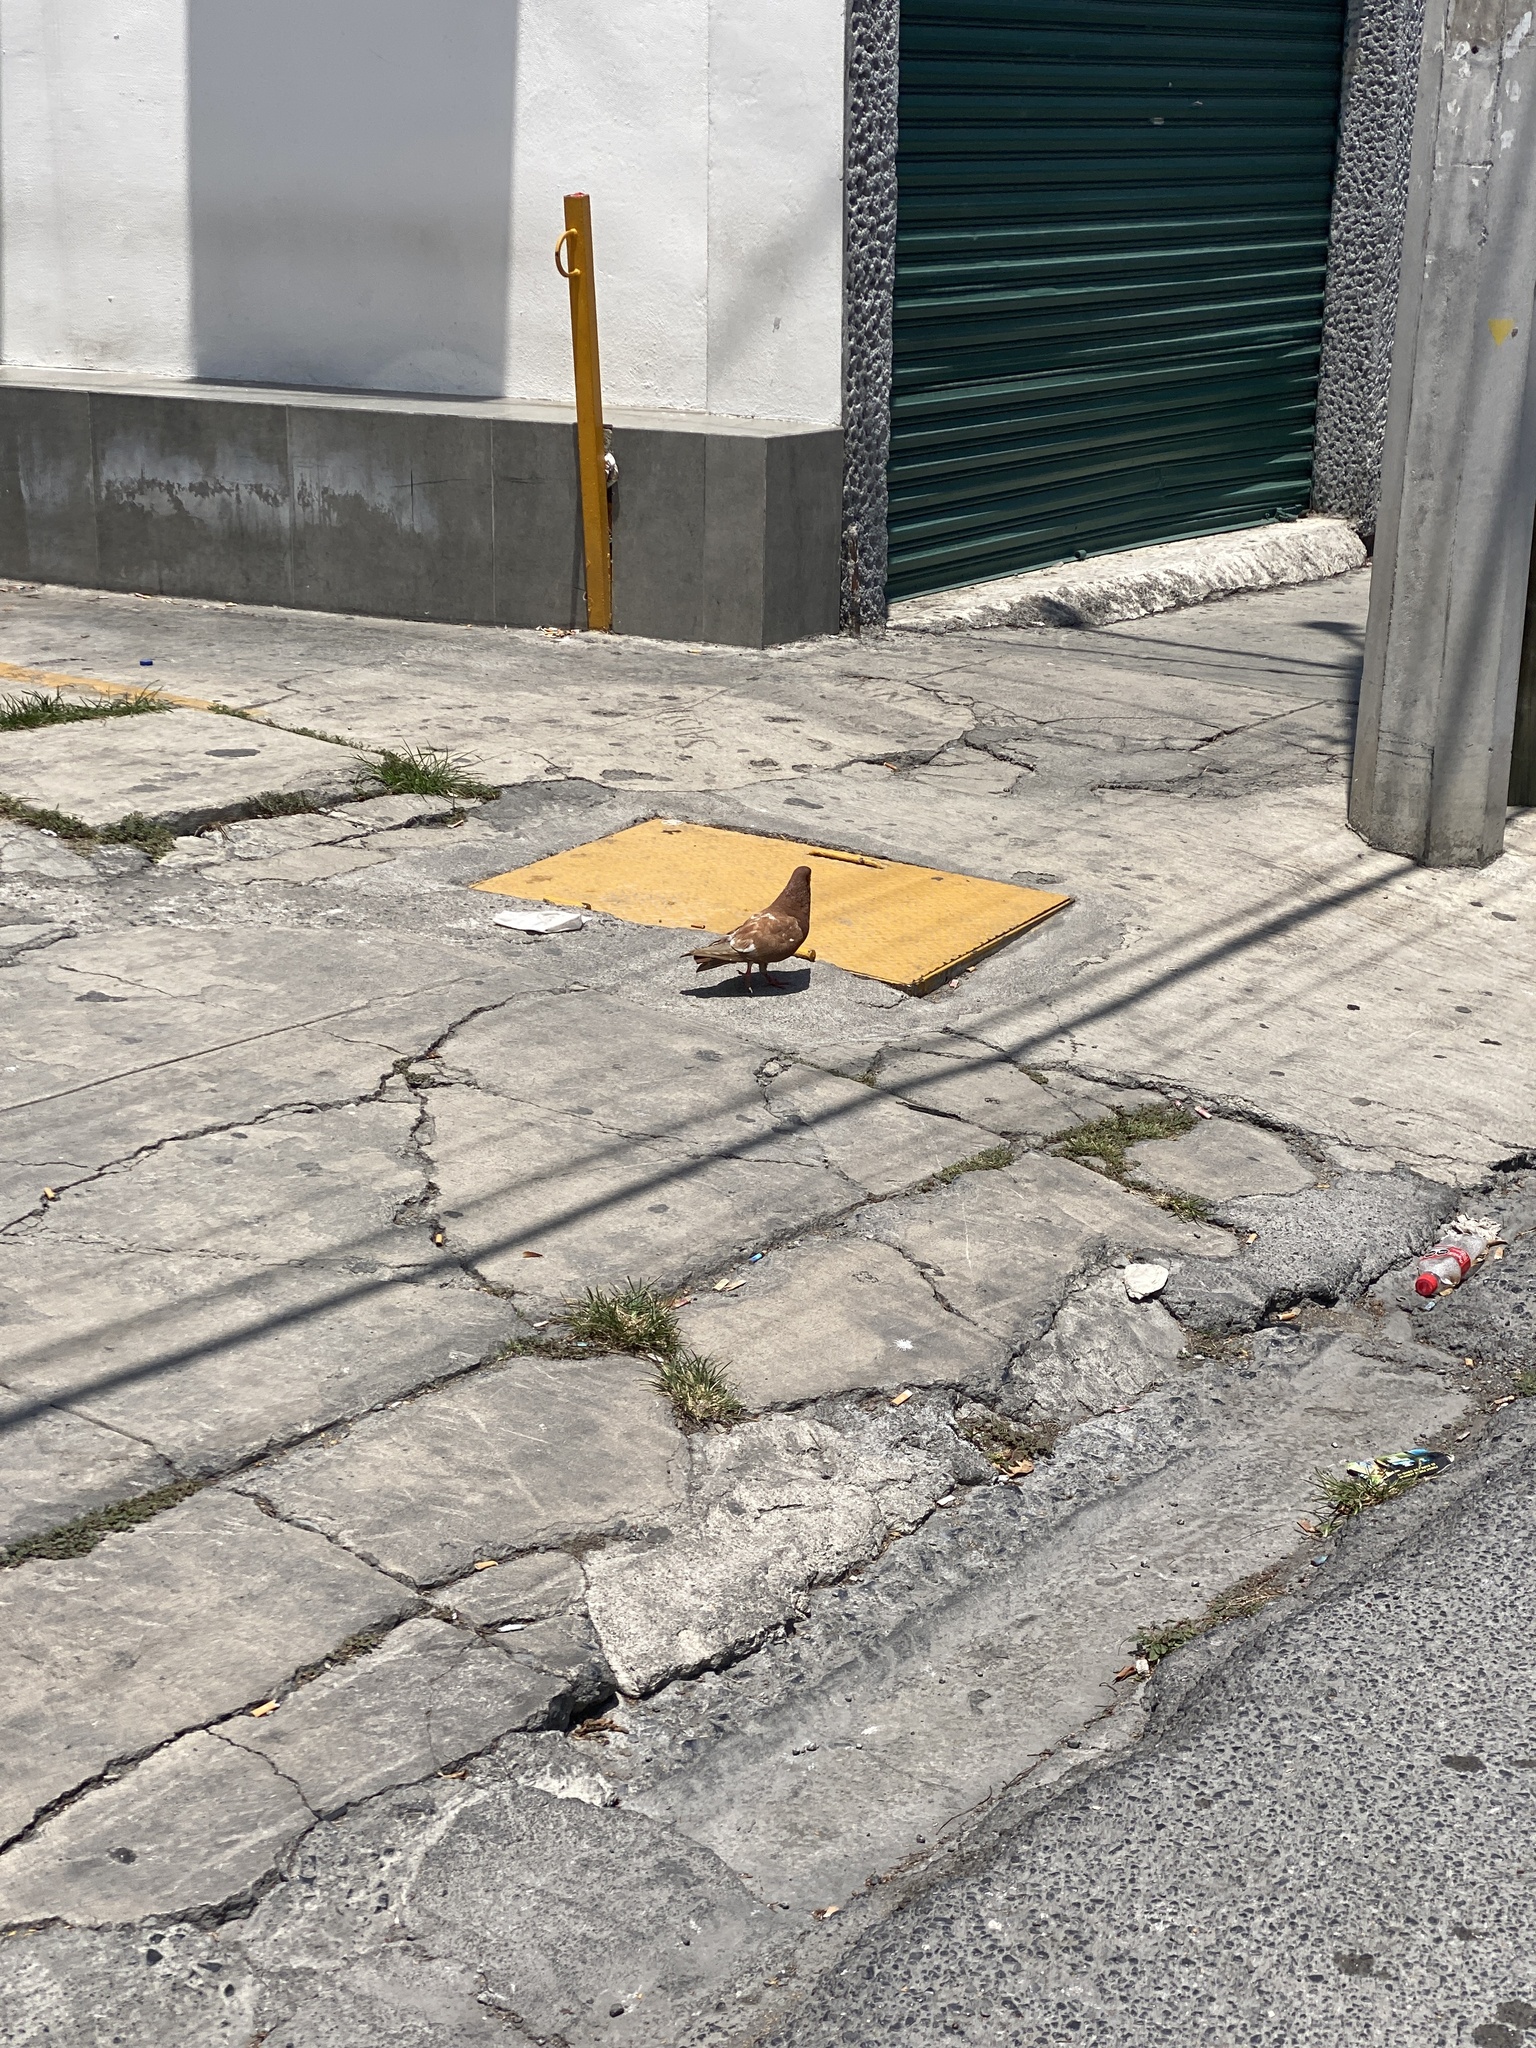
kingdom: Animalia
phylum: Chordata
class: Aves
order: Columbiformes
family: Columbidae
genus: Columba
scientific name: Columba livia
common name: Rock pigeon
